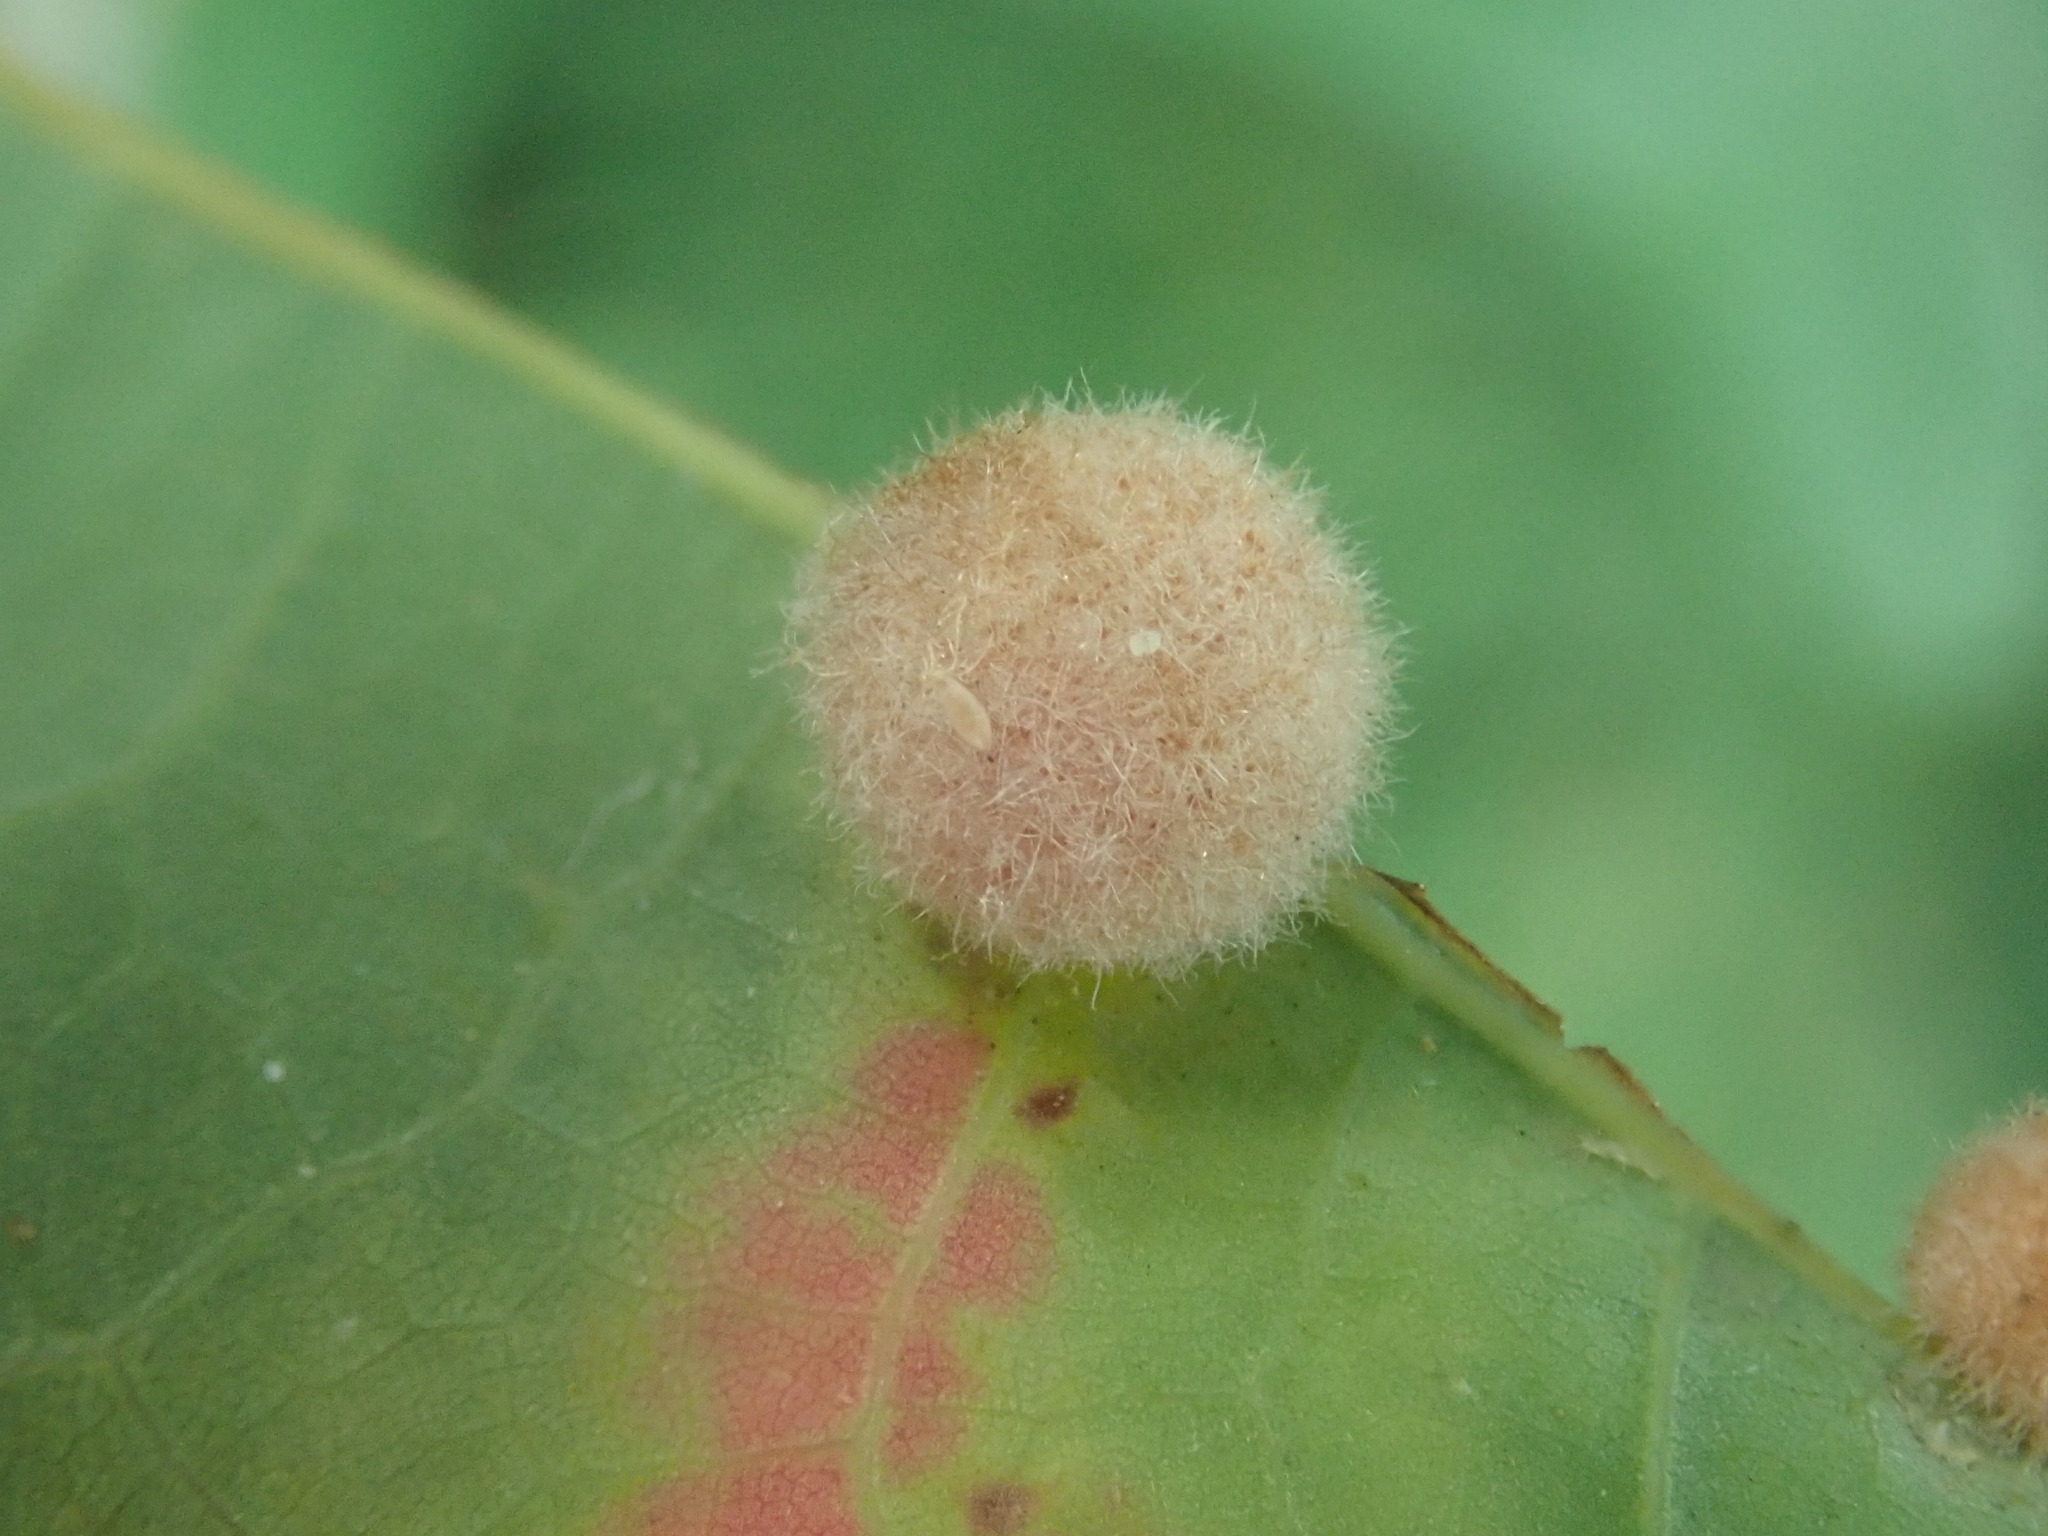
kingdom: Animalia
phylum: Arthropoda
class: Insecta
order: Hymenoptera
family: Cynipidae
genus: Philonix
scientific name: Philonix fulvicollis
